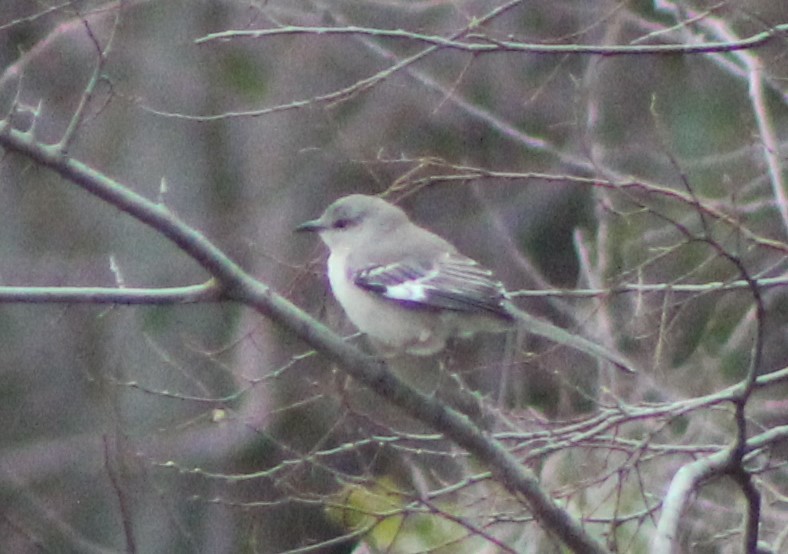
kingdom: Animalia
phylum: Chordata
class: Aves
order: Passeriformes
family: Mimidae
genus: Mimus
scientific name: Mimus polyglottos
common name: Northern mockingbird
